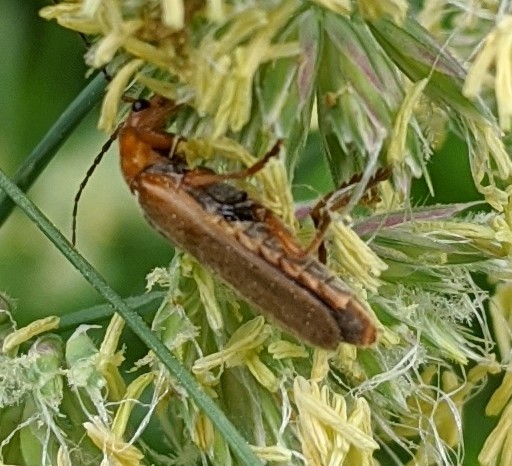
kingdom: Animalia
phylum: Arthropoda
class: Insecta
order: Coleoptera
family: Cantharidae
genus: Cantharis
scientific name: Cantharis rufa
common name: Red-spotted soldier beetle
